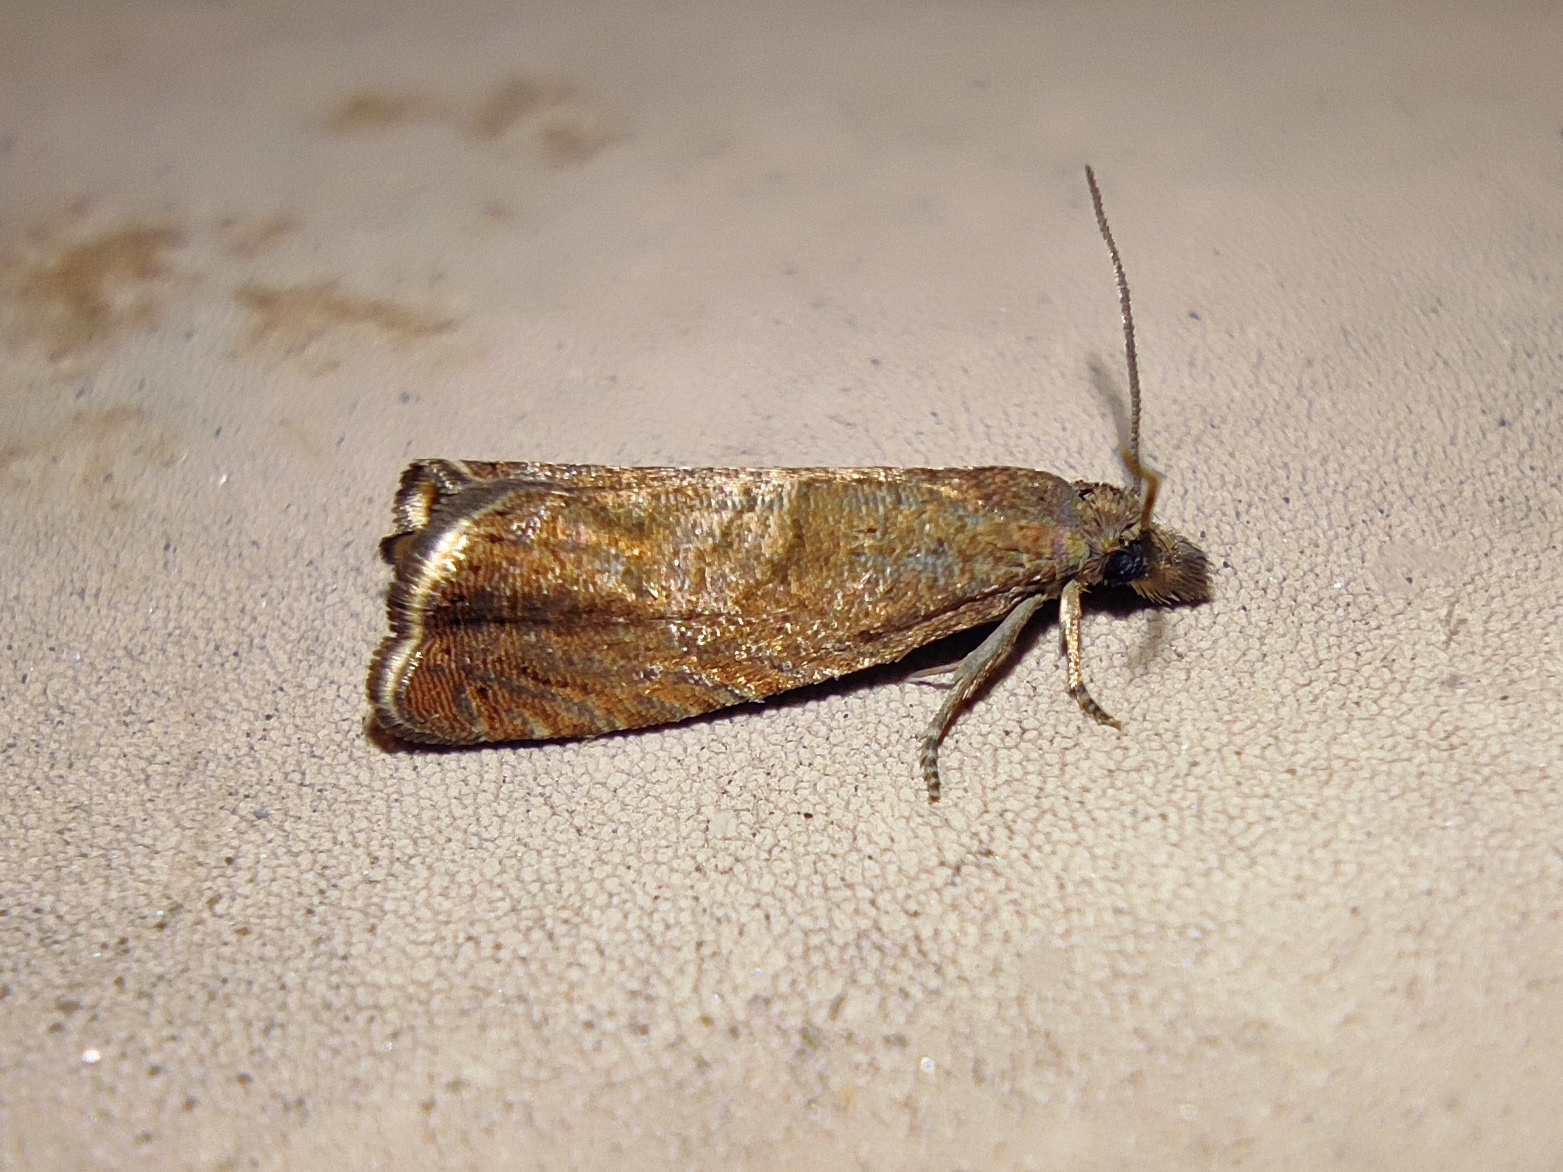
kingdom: Animalia
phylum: Arthropoda
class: Insecta
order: Lepidoptera
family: Tortricidae
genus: Dichrorampha
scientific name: Dichrorampha acuminatana
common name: Sharp-winged drill
